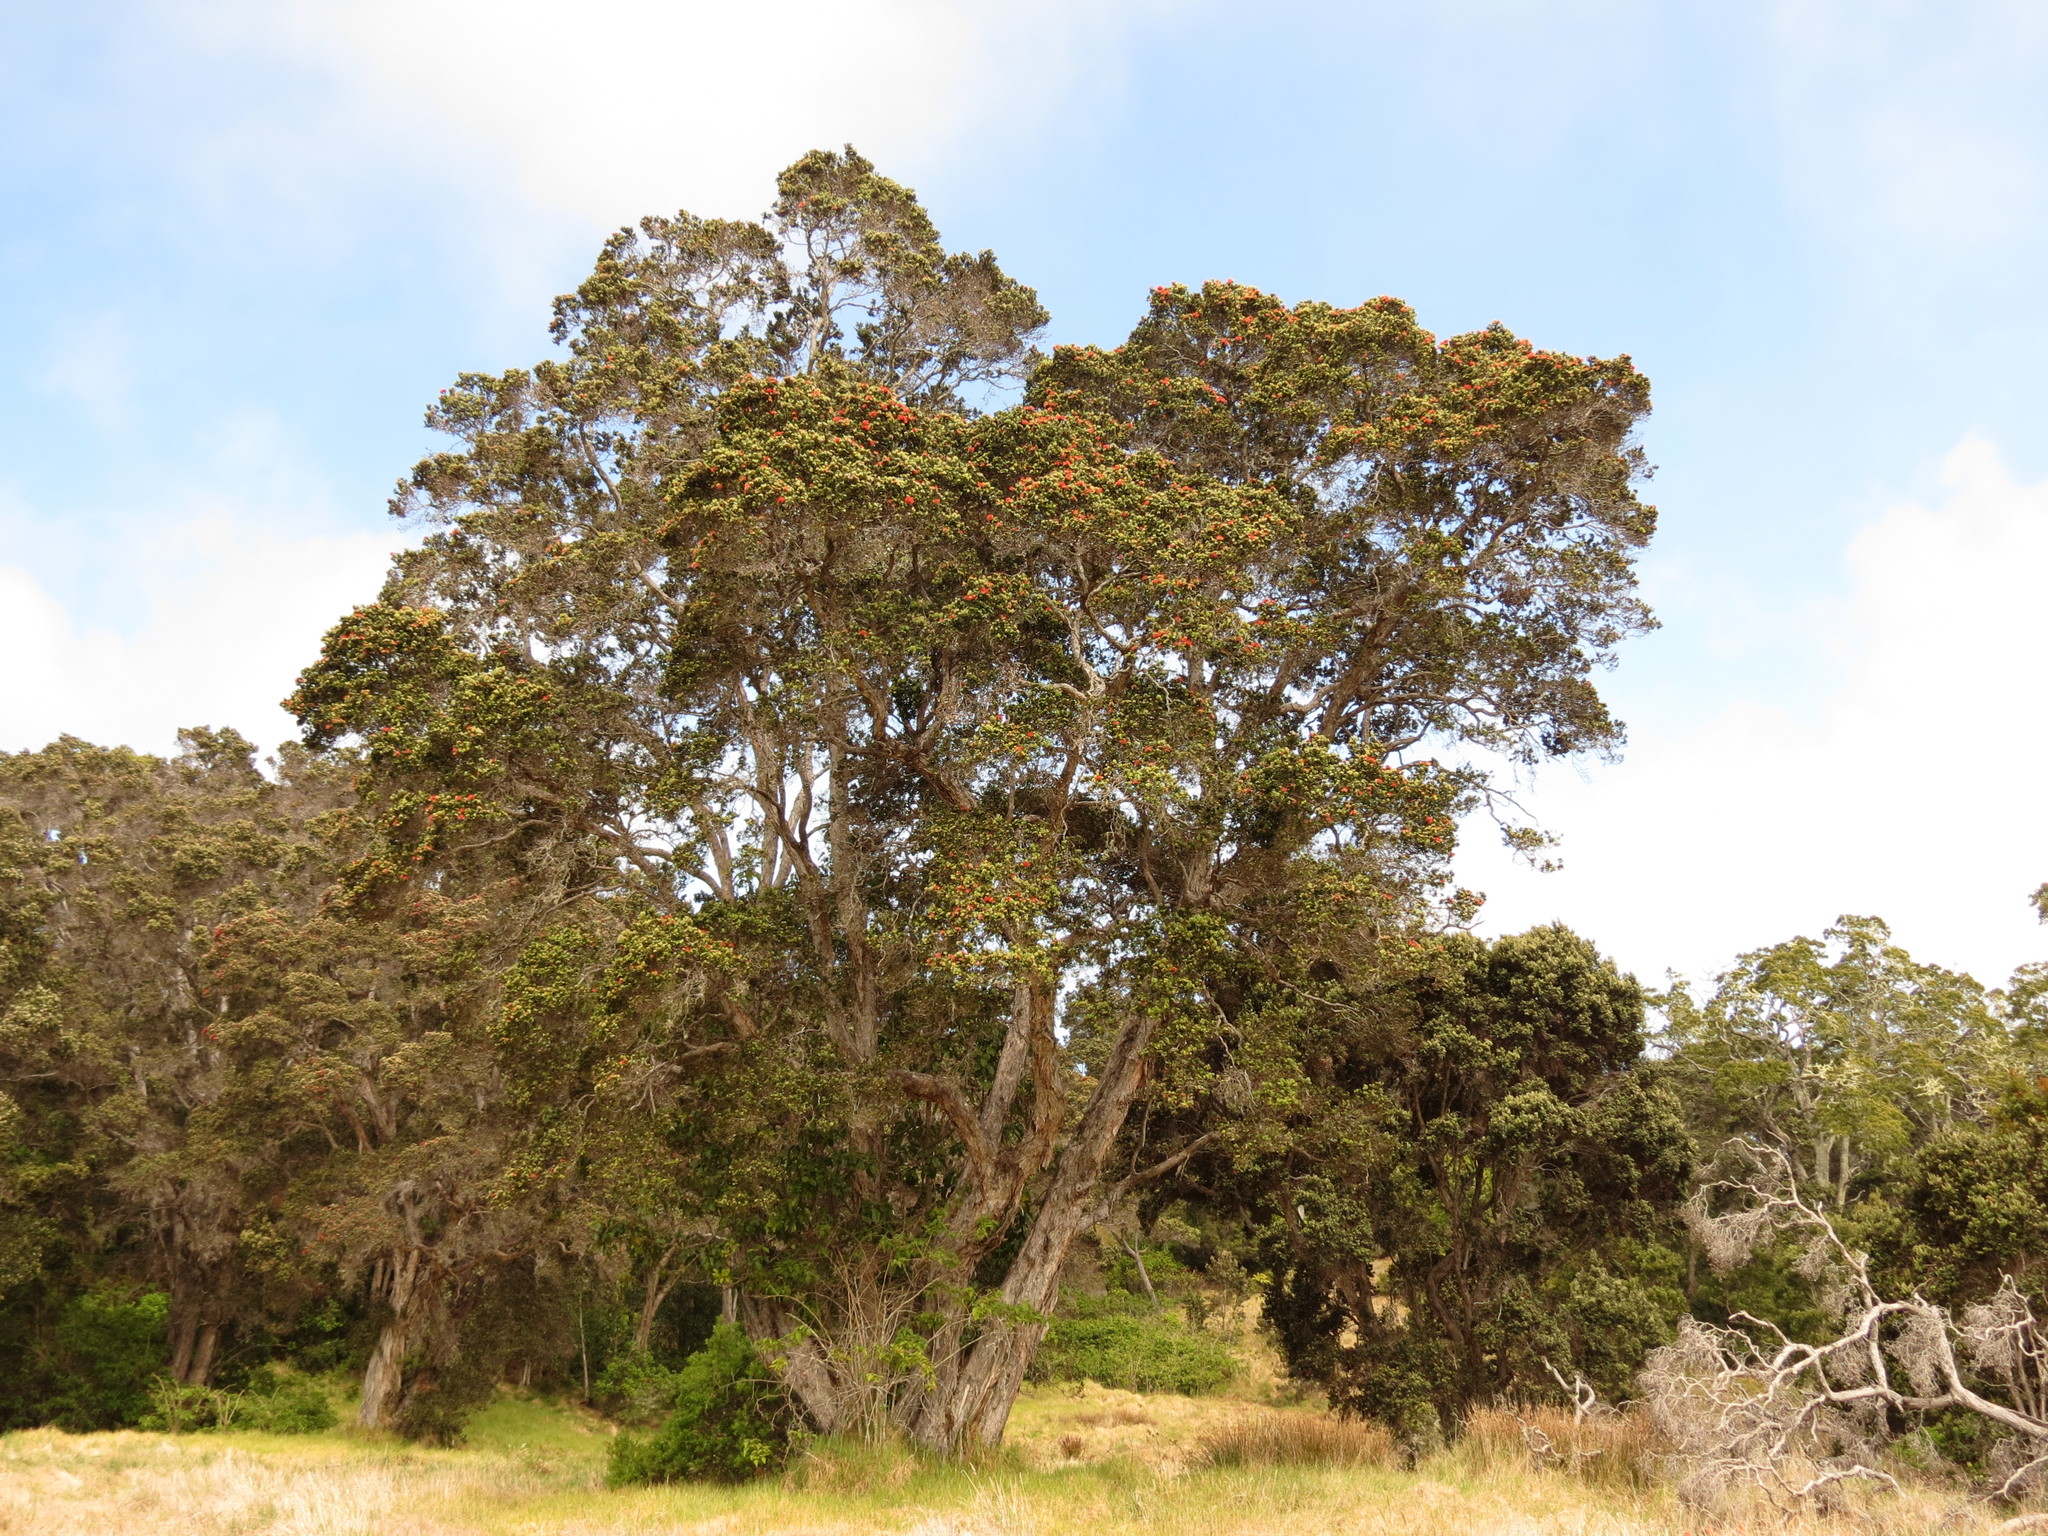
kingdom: Plantae
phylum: Tracheophyta
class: Magnoliopsida
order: Myrtales
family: Myrtaceae
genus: Metrosideros
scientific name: Metrosideros polymorpha
